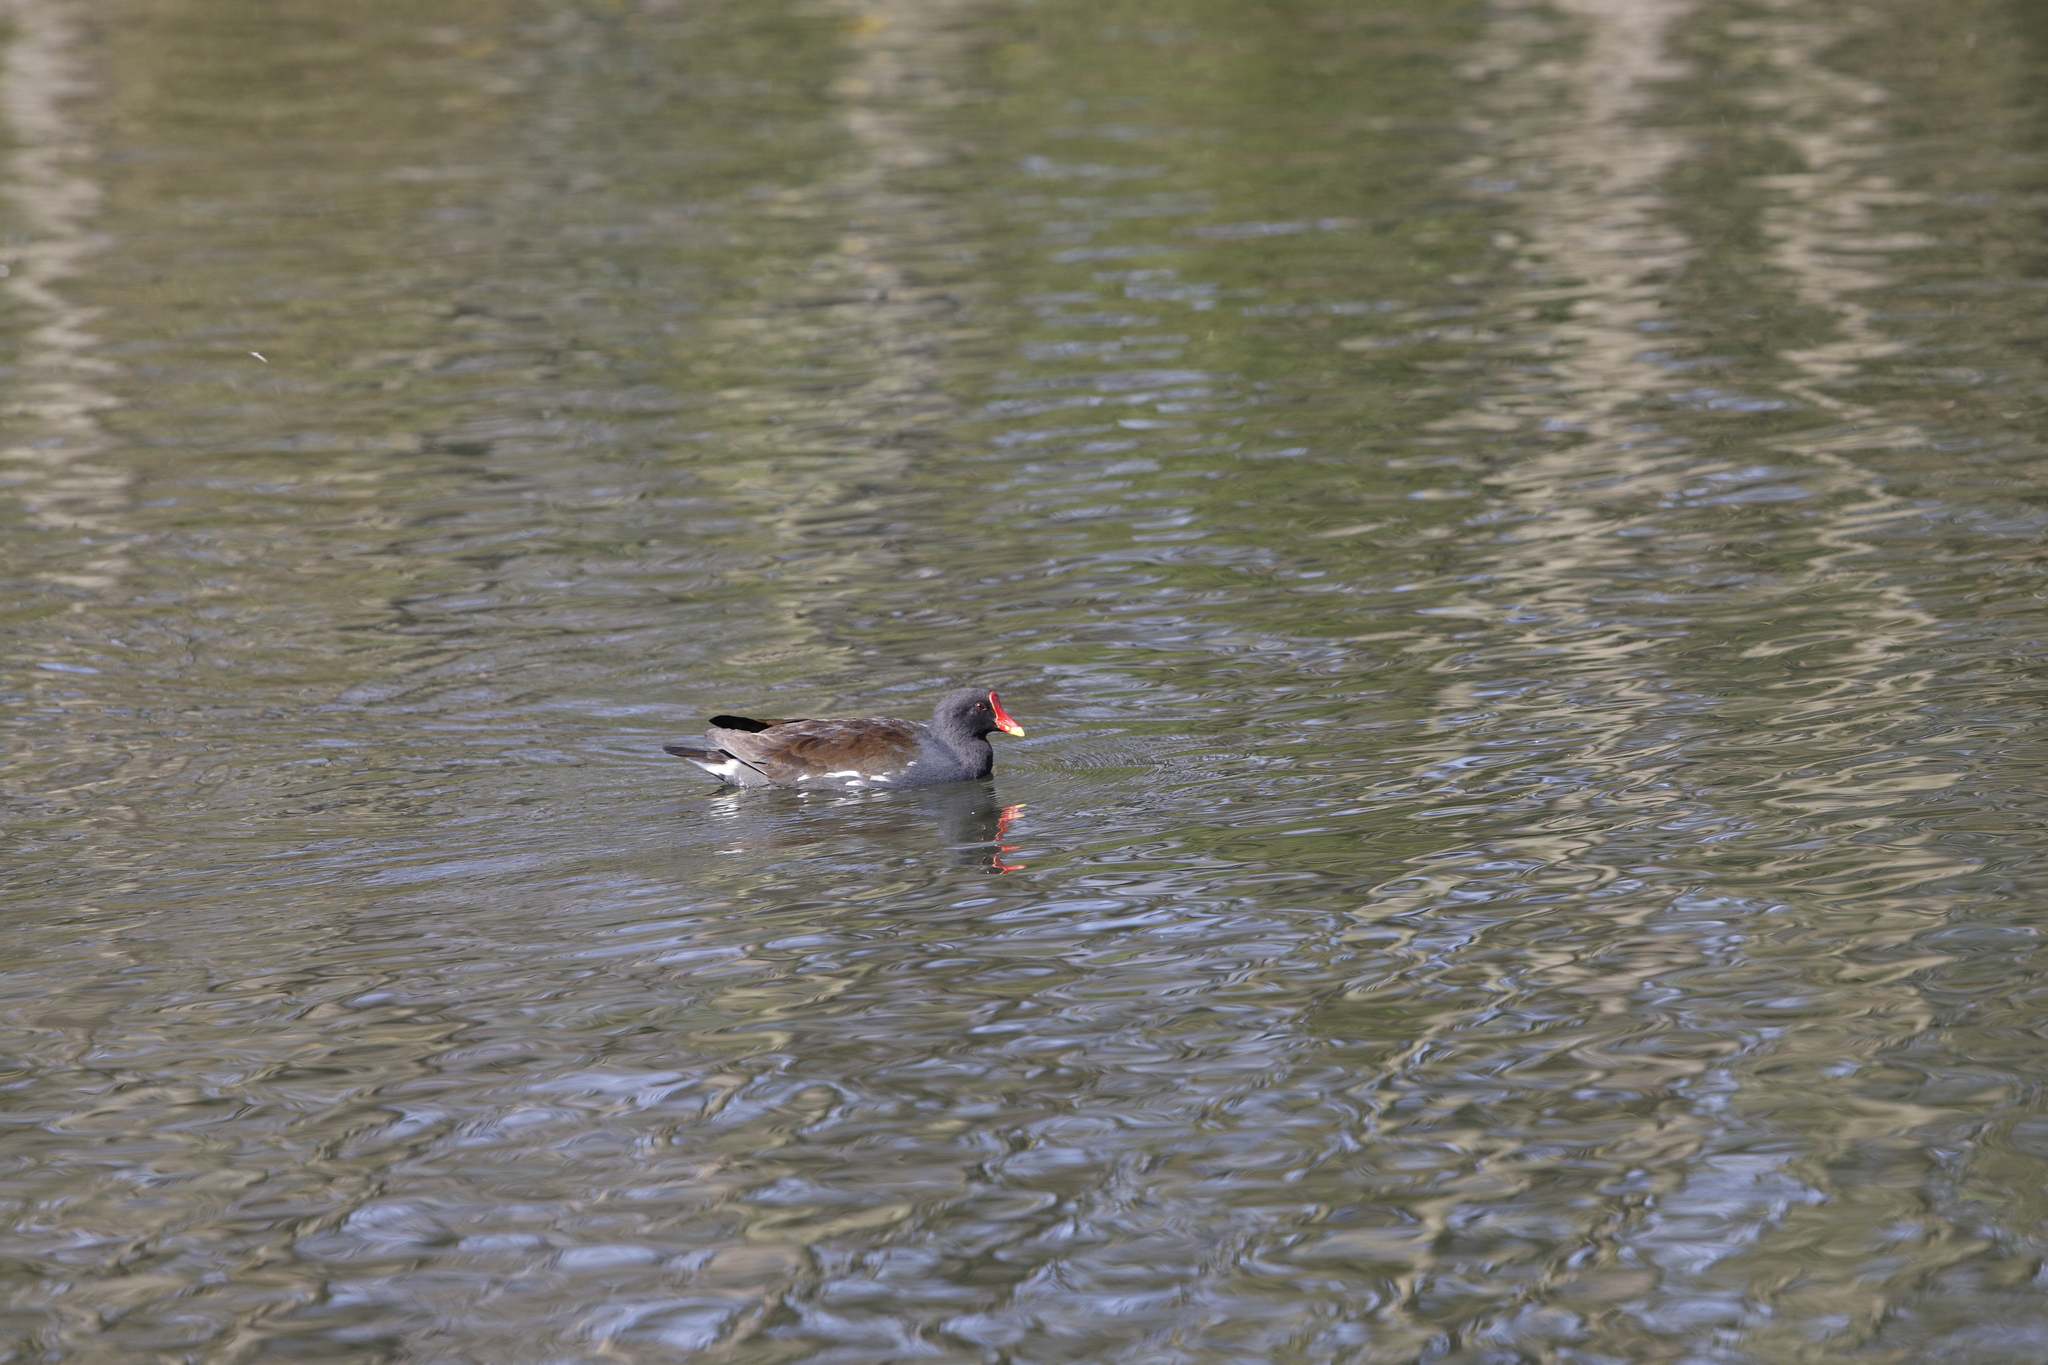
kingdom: Animalia
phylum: Chordata
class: Aves
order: Gruiformes
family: Rallidae
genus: Gallinula
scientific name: Gallinula chloropus
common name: Common moorhen
